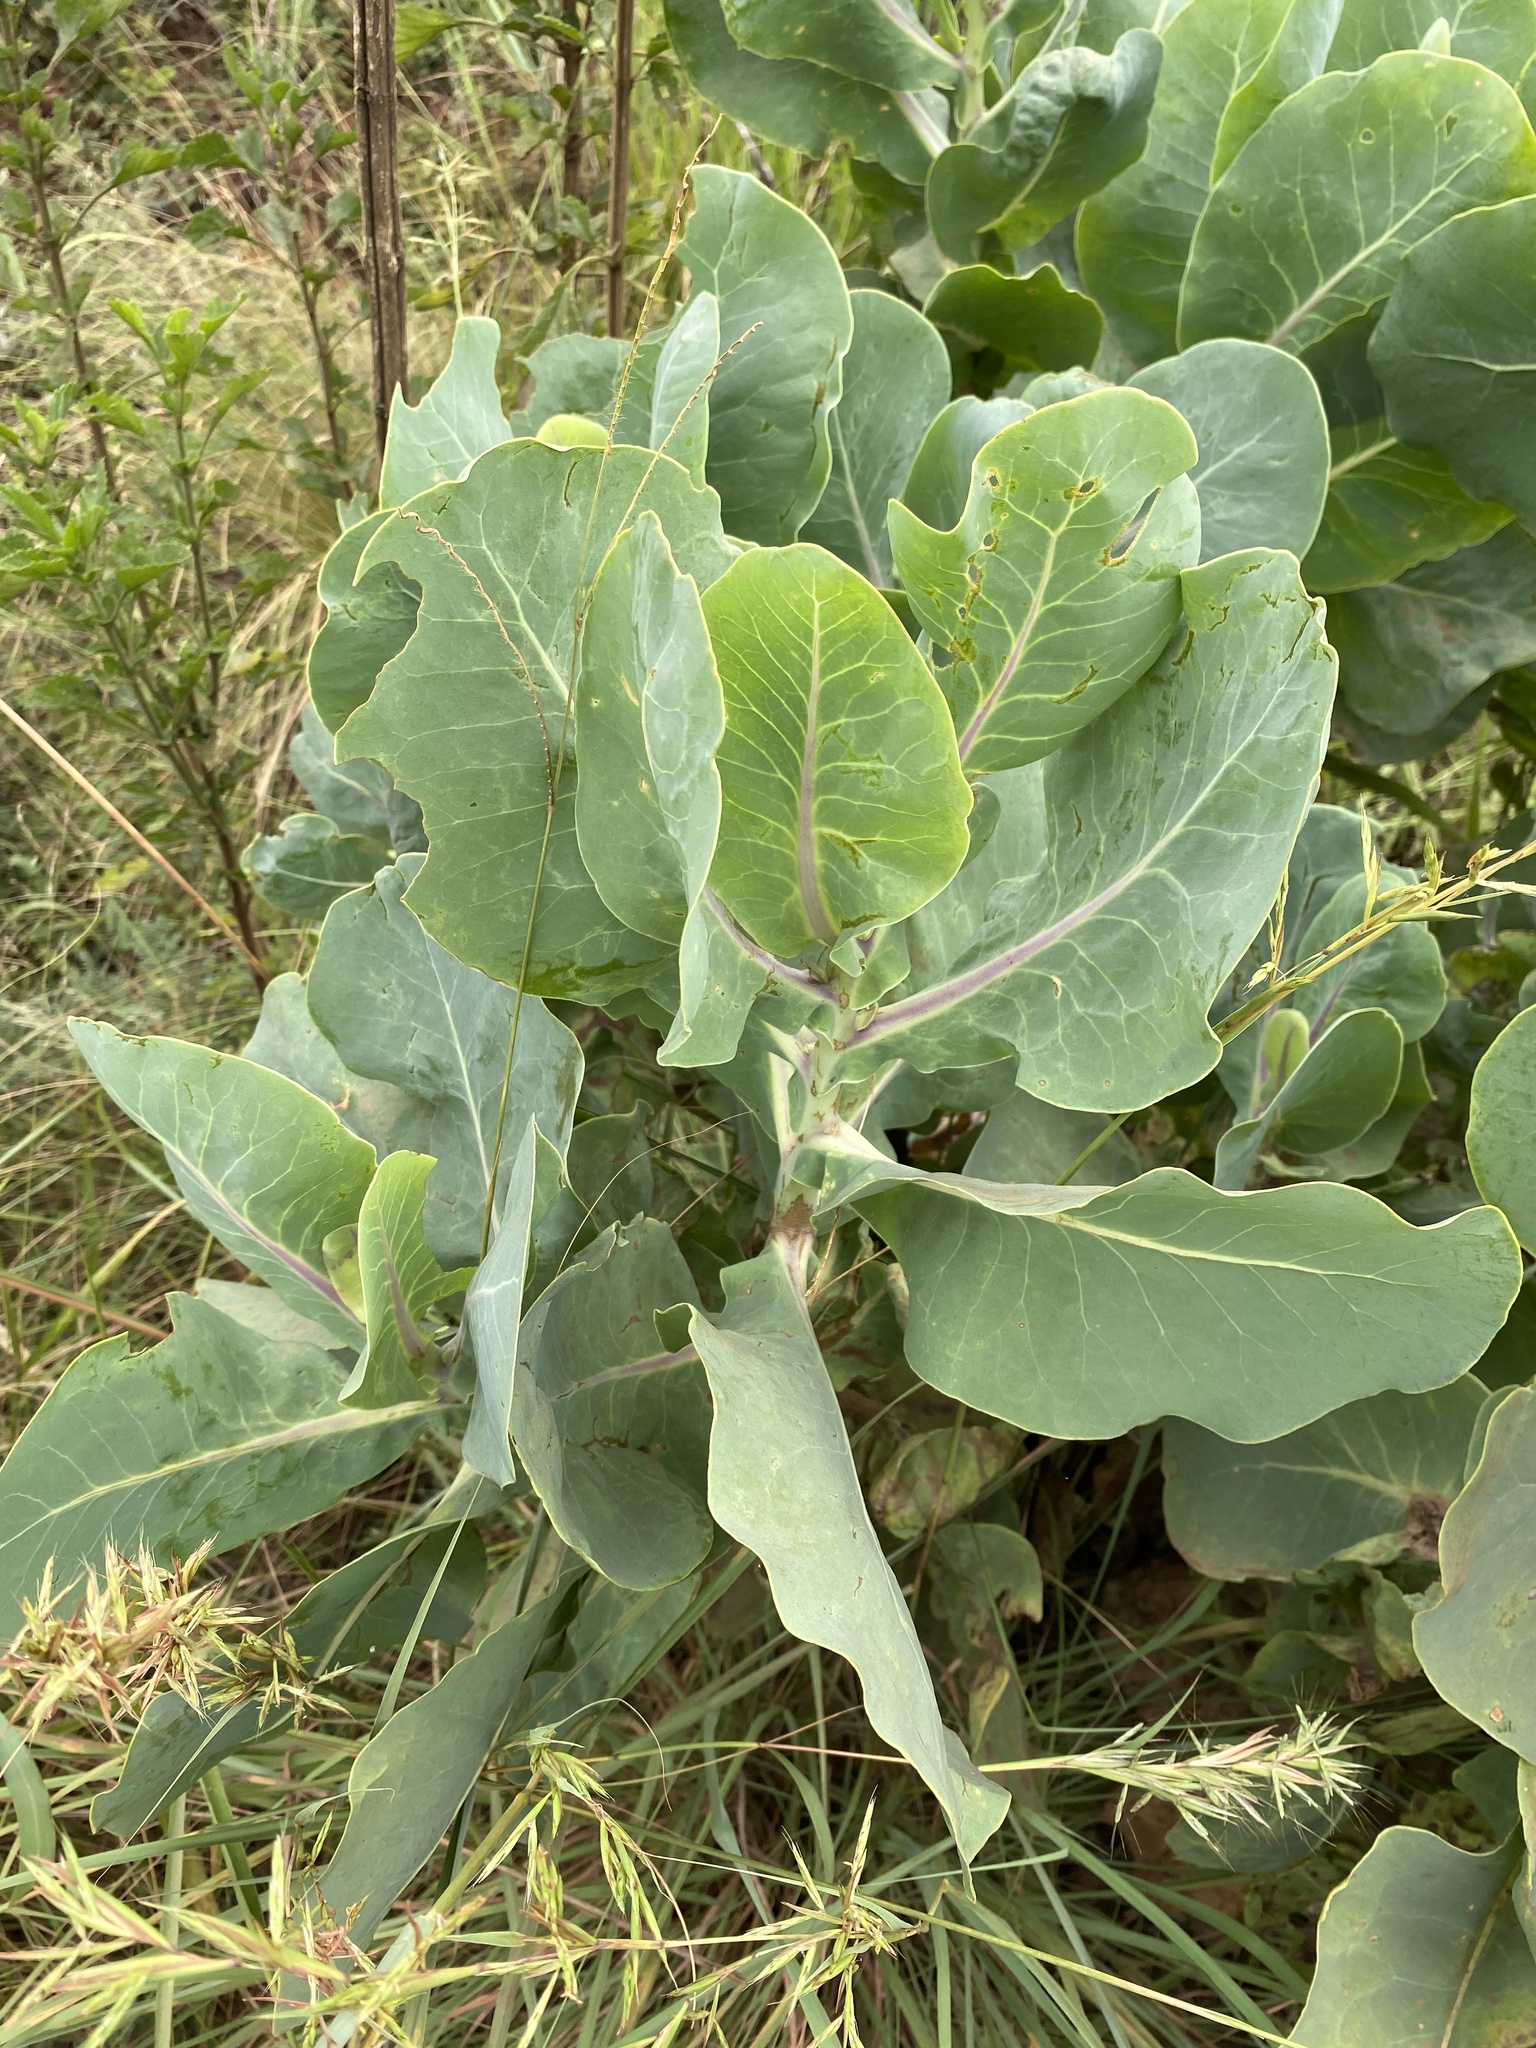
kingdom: Plantae
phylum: Tracheophyta
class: Magnoliopsida
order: Asterales
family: Asteraceae
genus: Lopholaena
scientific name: Lopholaena platyphylla
